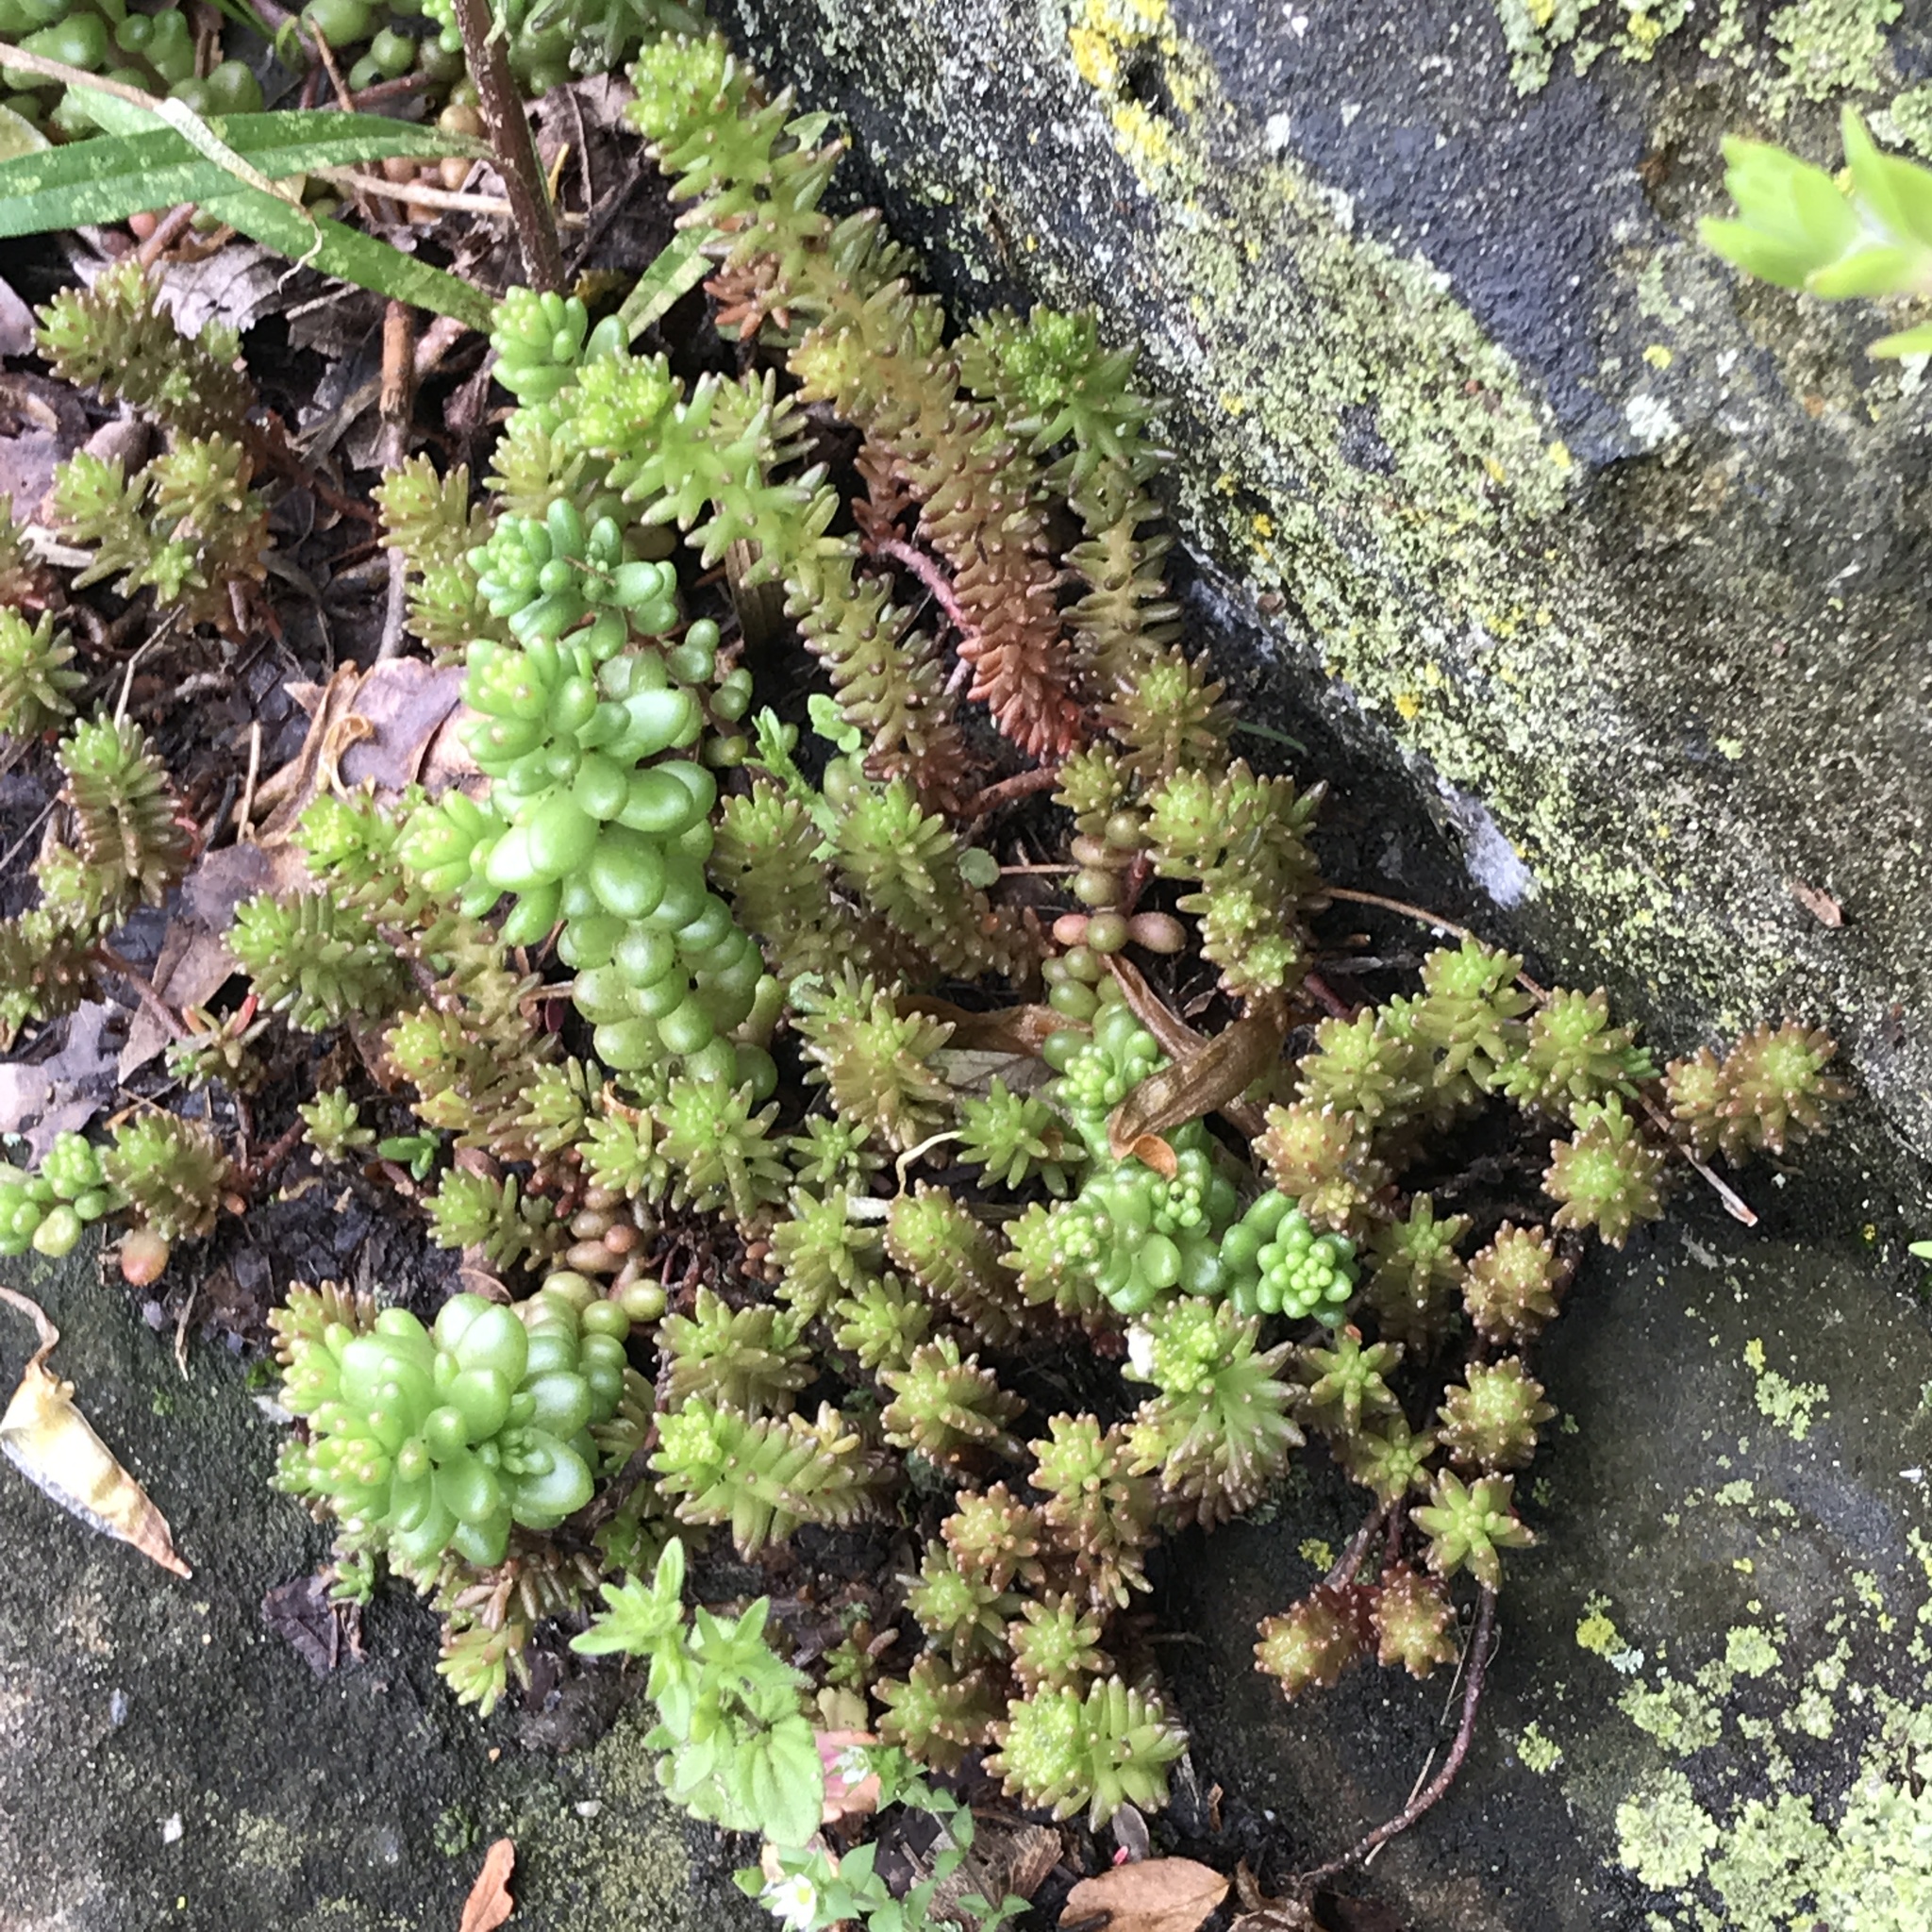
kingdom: Plantae
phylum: Tracheophyta
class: Magnoliopsida
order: Saxifragales
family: Crassulaceae
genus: Sedum
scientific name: Sedum sexangulare
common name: Tasteless stonecrop
